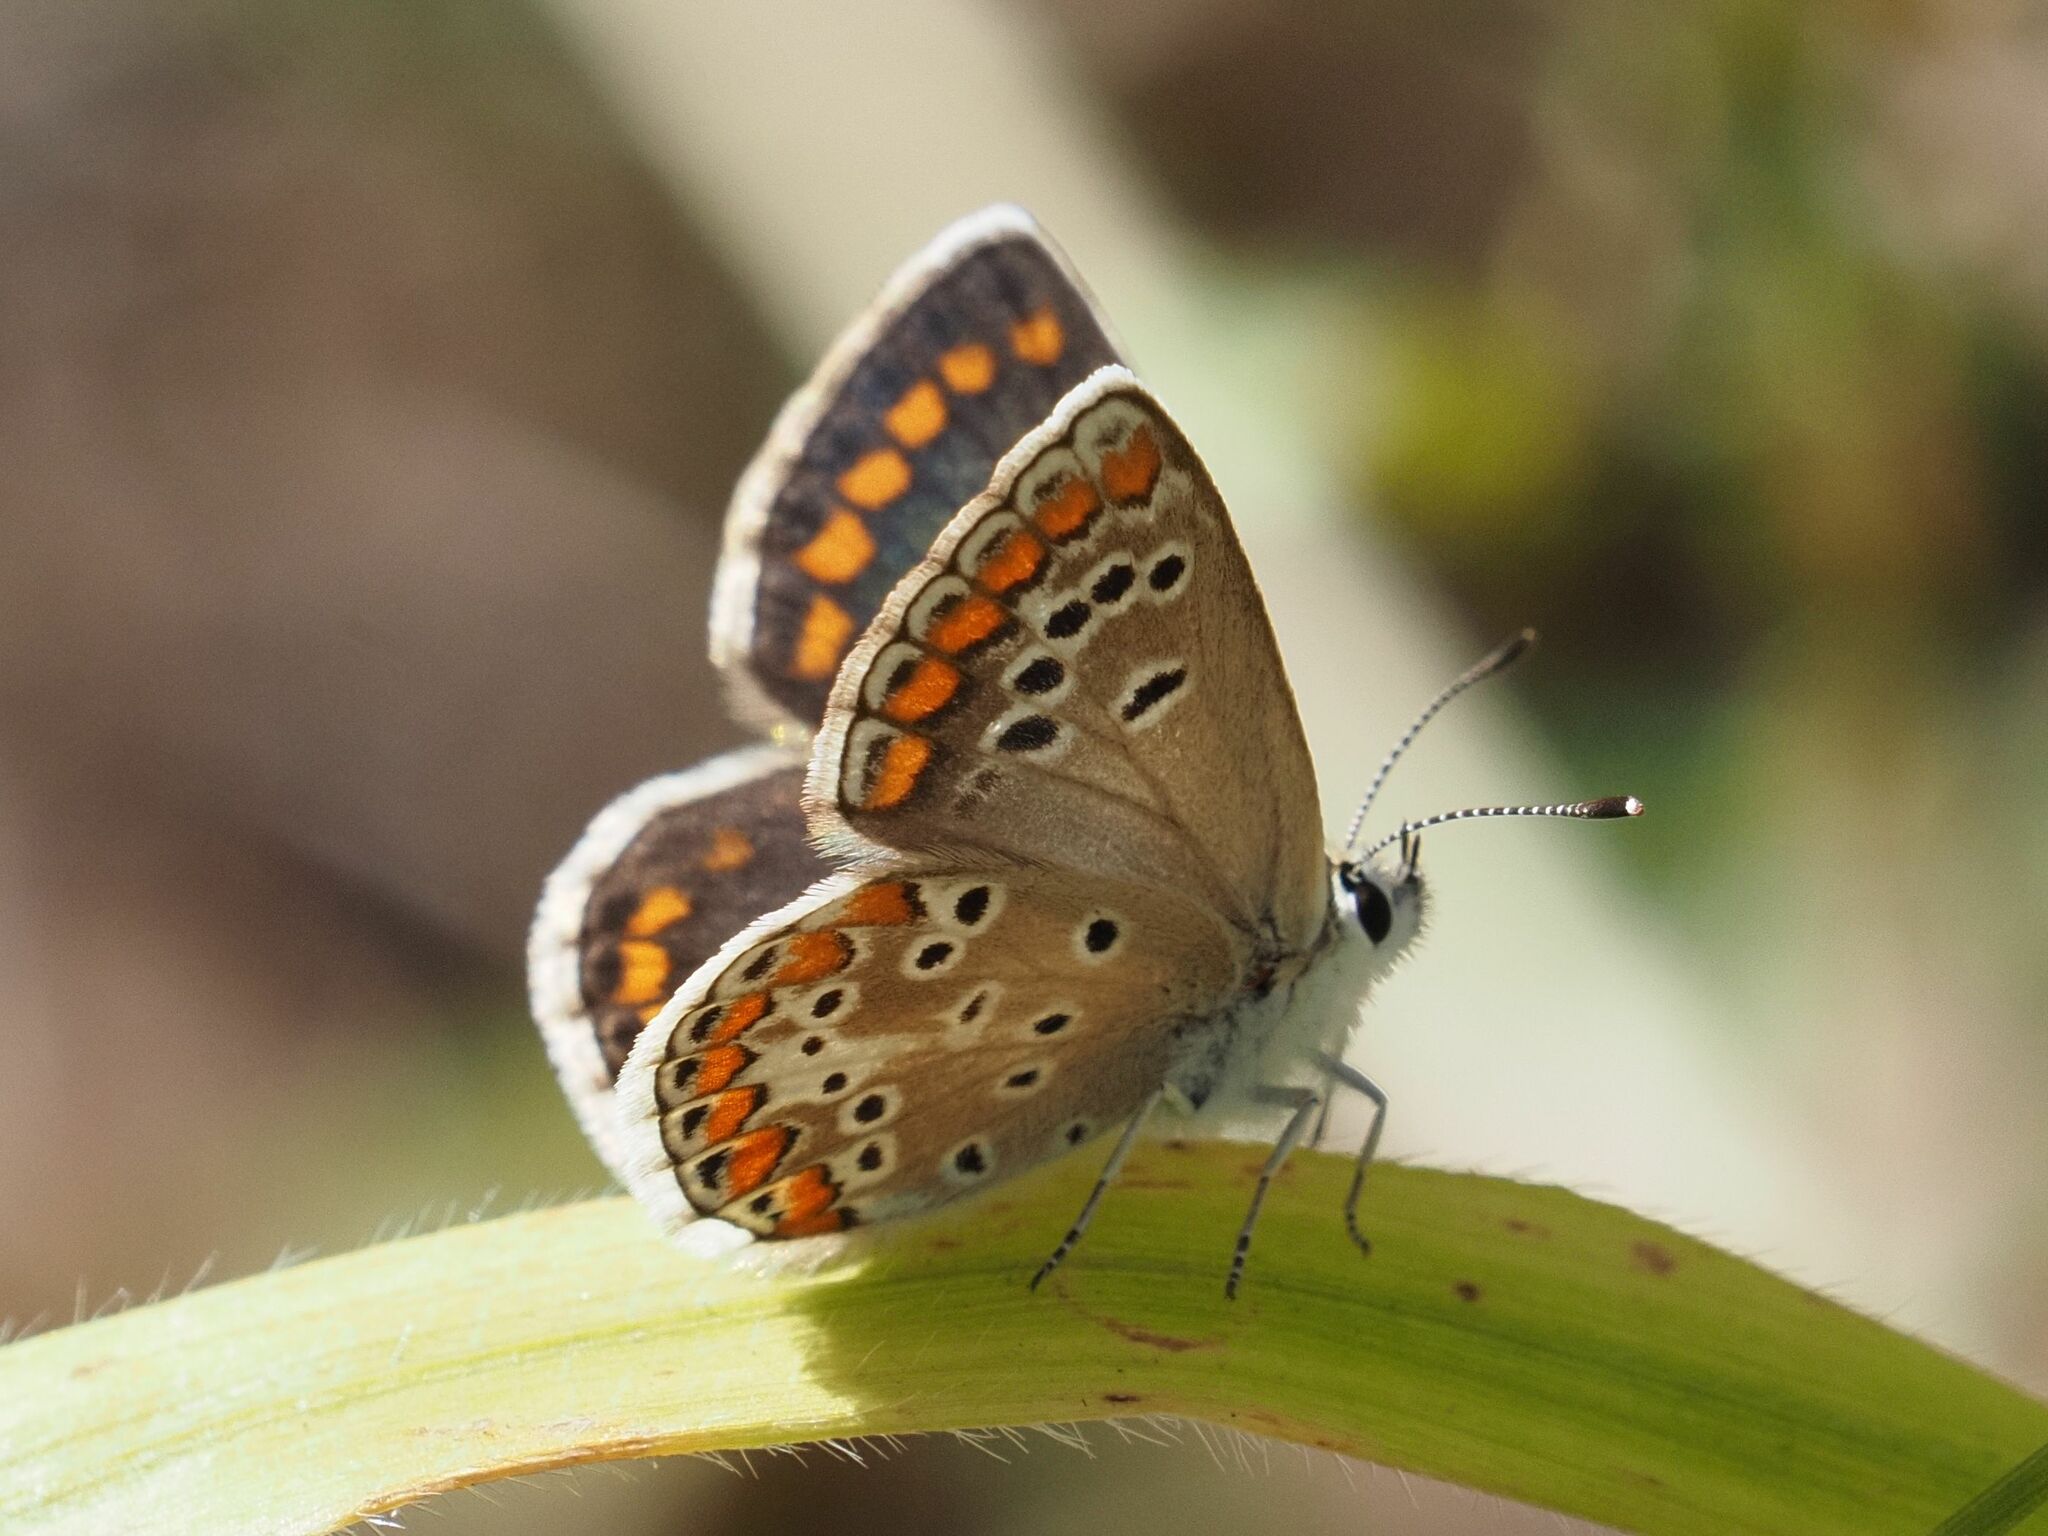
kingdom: Animalia
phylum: Arthropoda
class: Insecta
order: Lepidoptera
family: Lycaenidae
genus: Aricia
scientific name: Aricia agestis
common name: Brown argus
